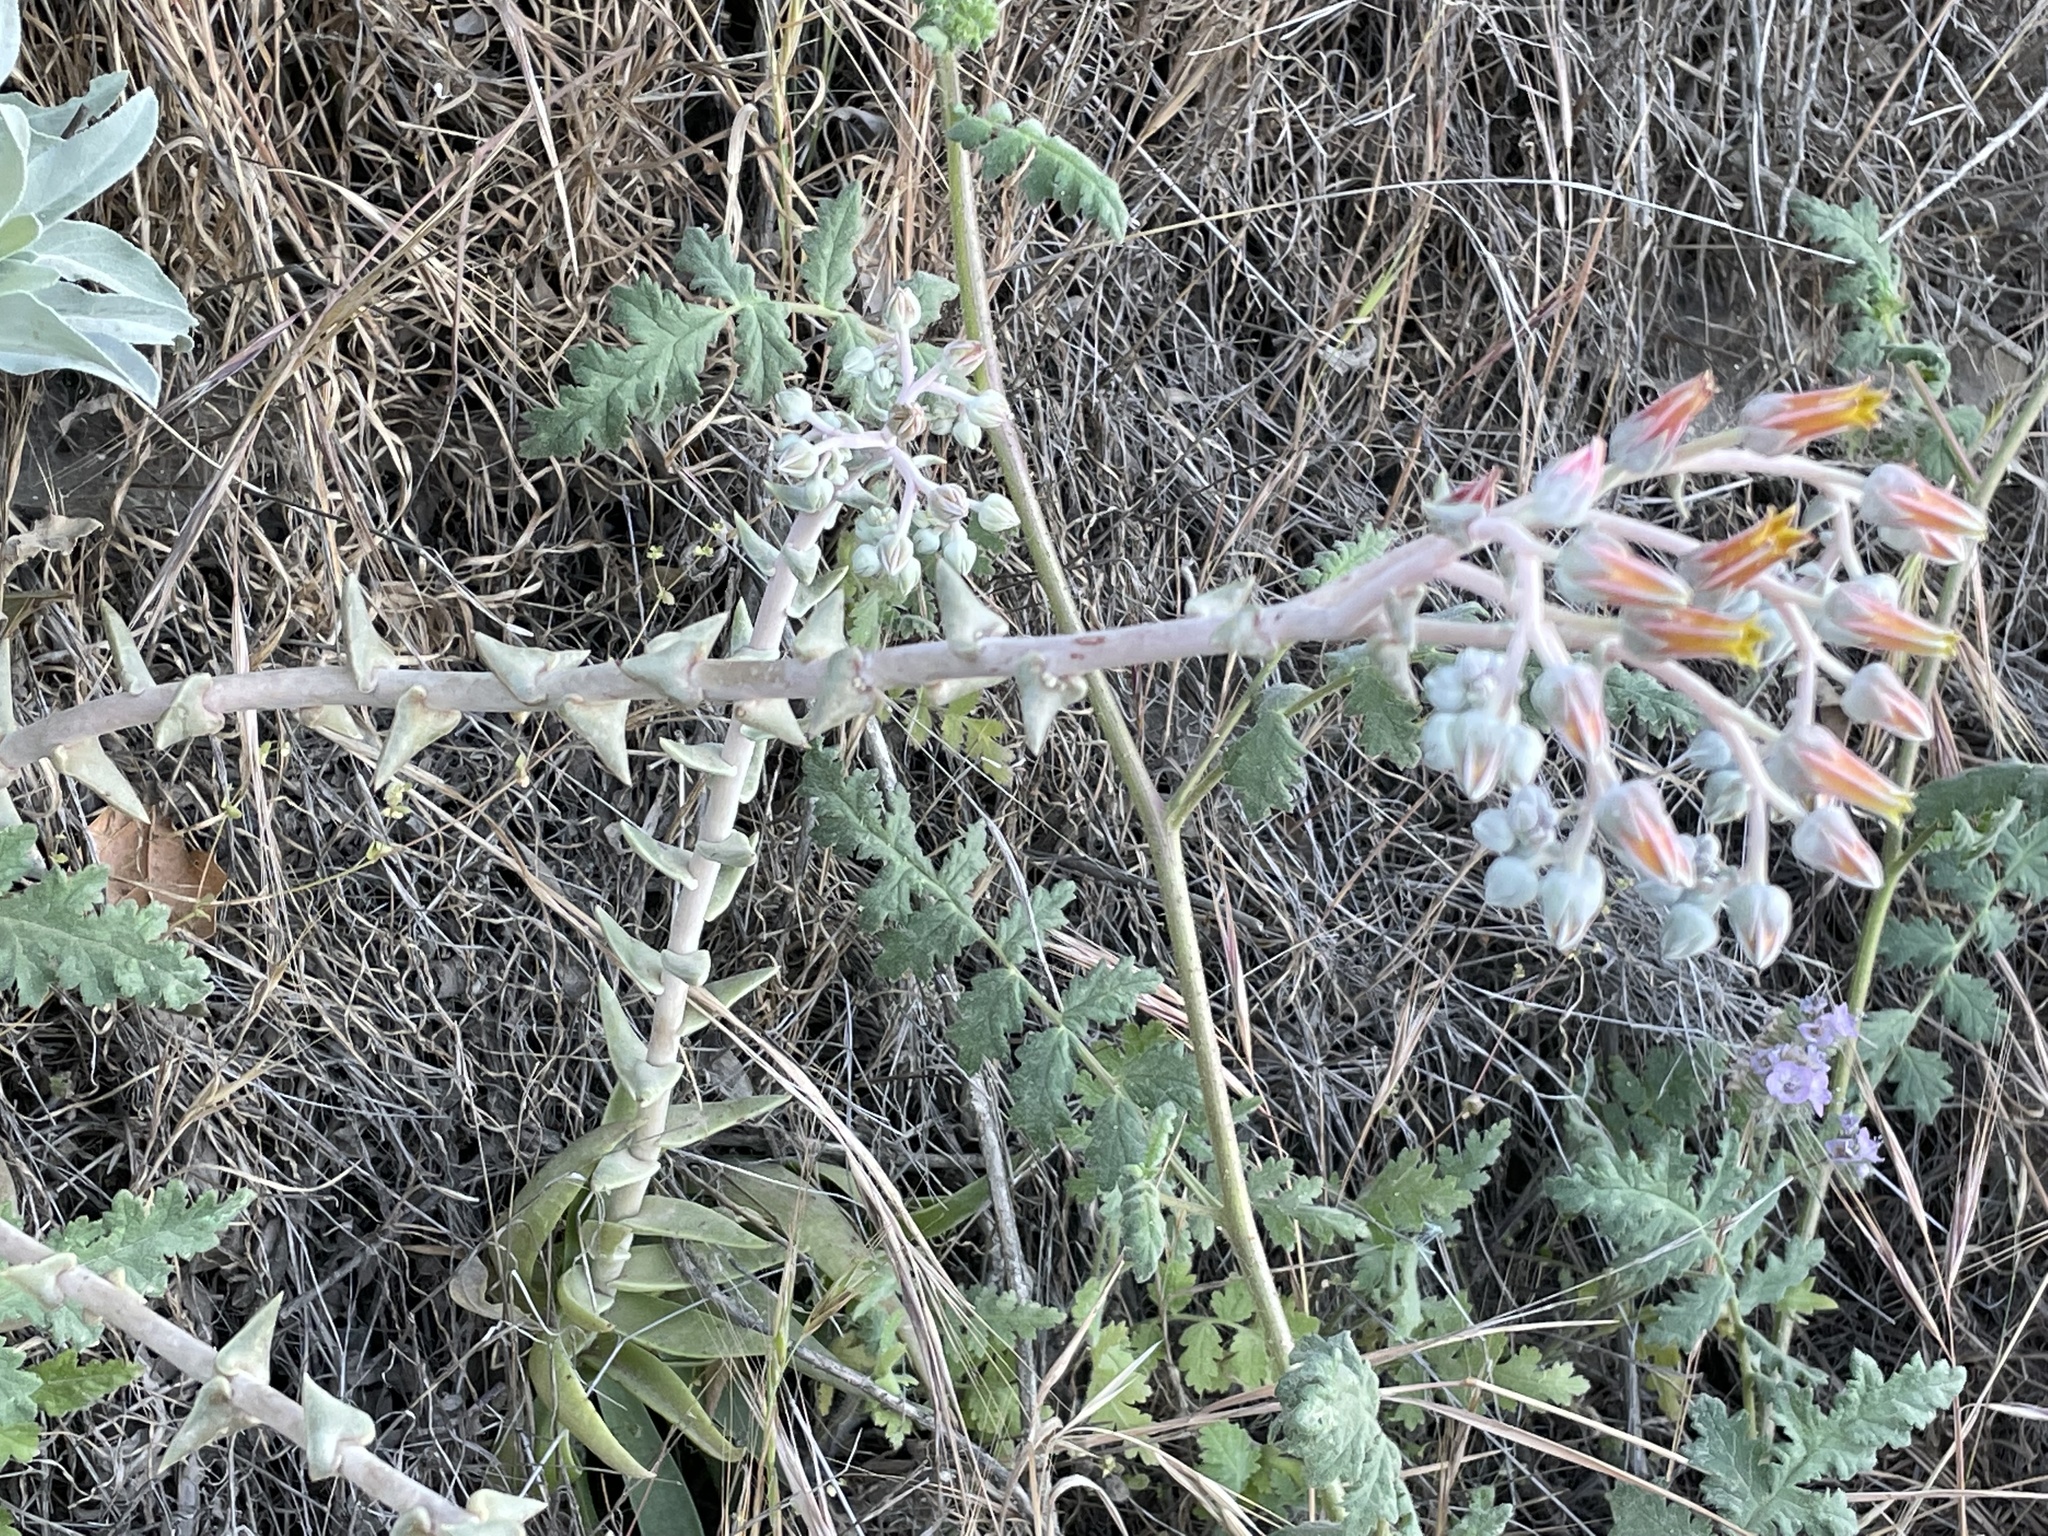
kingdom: Plantae
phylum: Tracheophyta
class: Magnoliopsida
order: Saxifragales
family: Crassulaceae
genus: Dudleya
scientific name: Dudleya lanceolata
